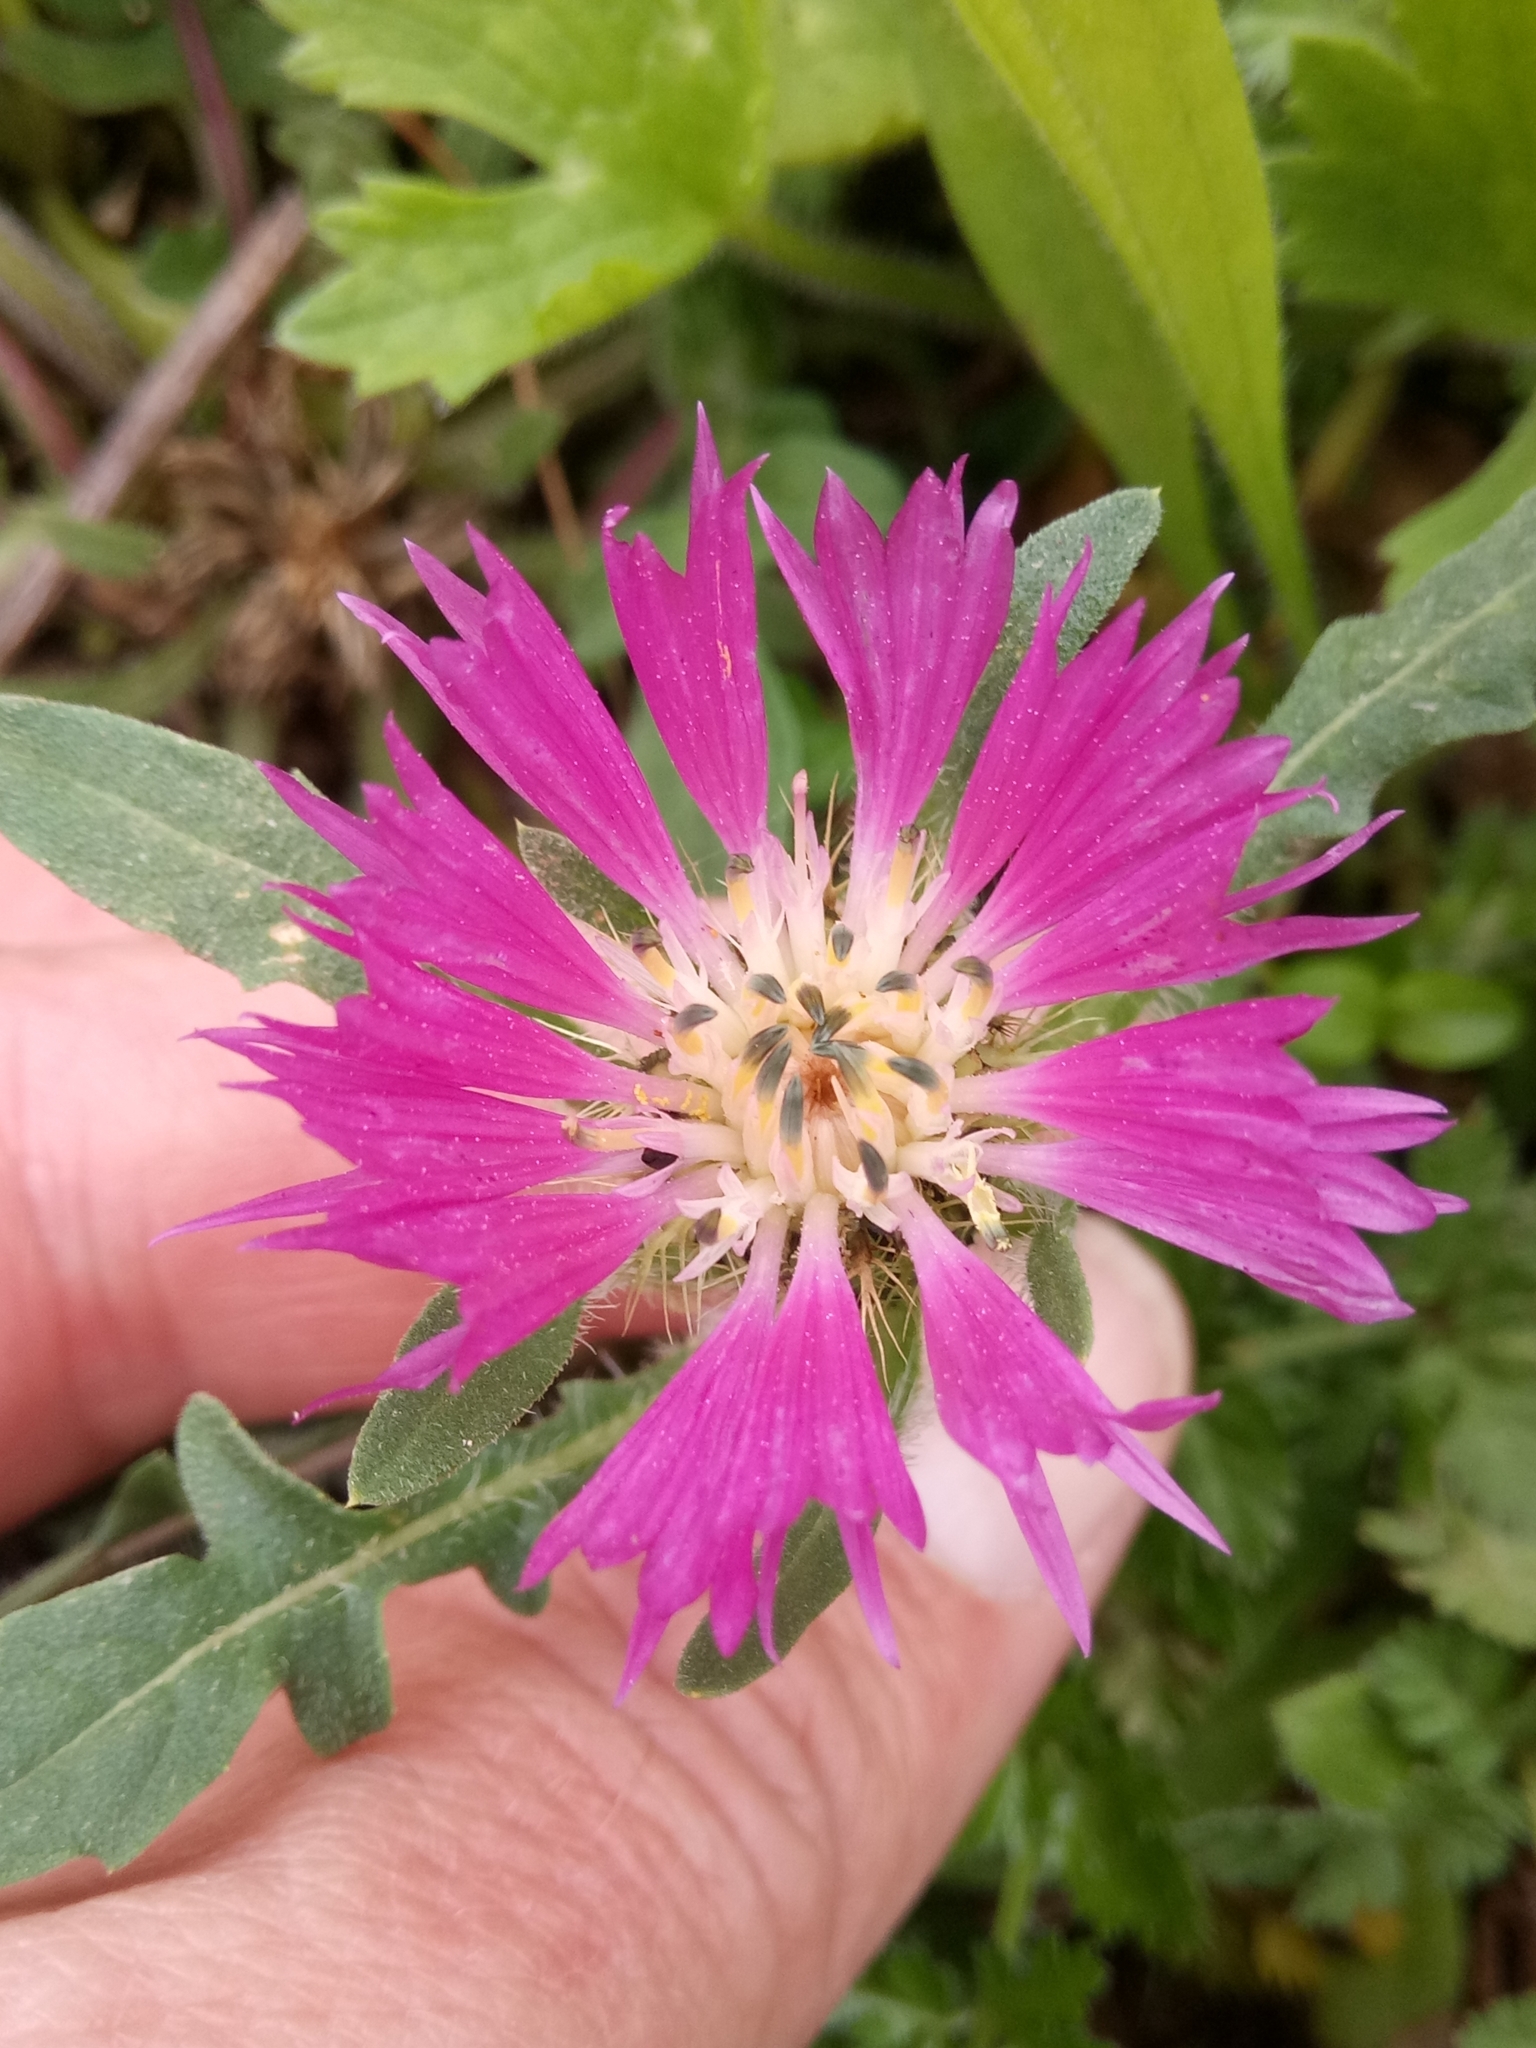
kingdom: Plantae
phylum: Tracheophyta
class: Magnoliopsida
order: Asterales
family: Asteraceae
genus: Centaurea
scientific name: Centaurea pullata
